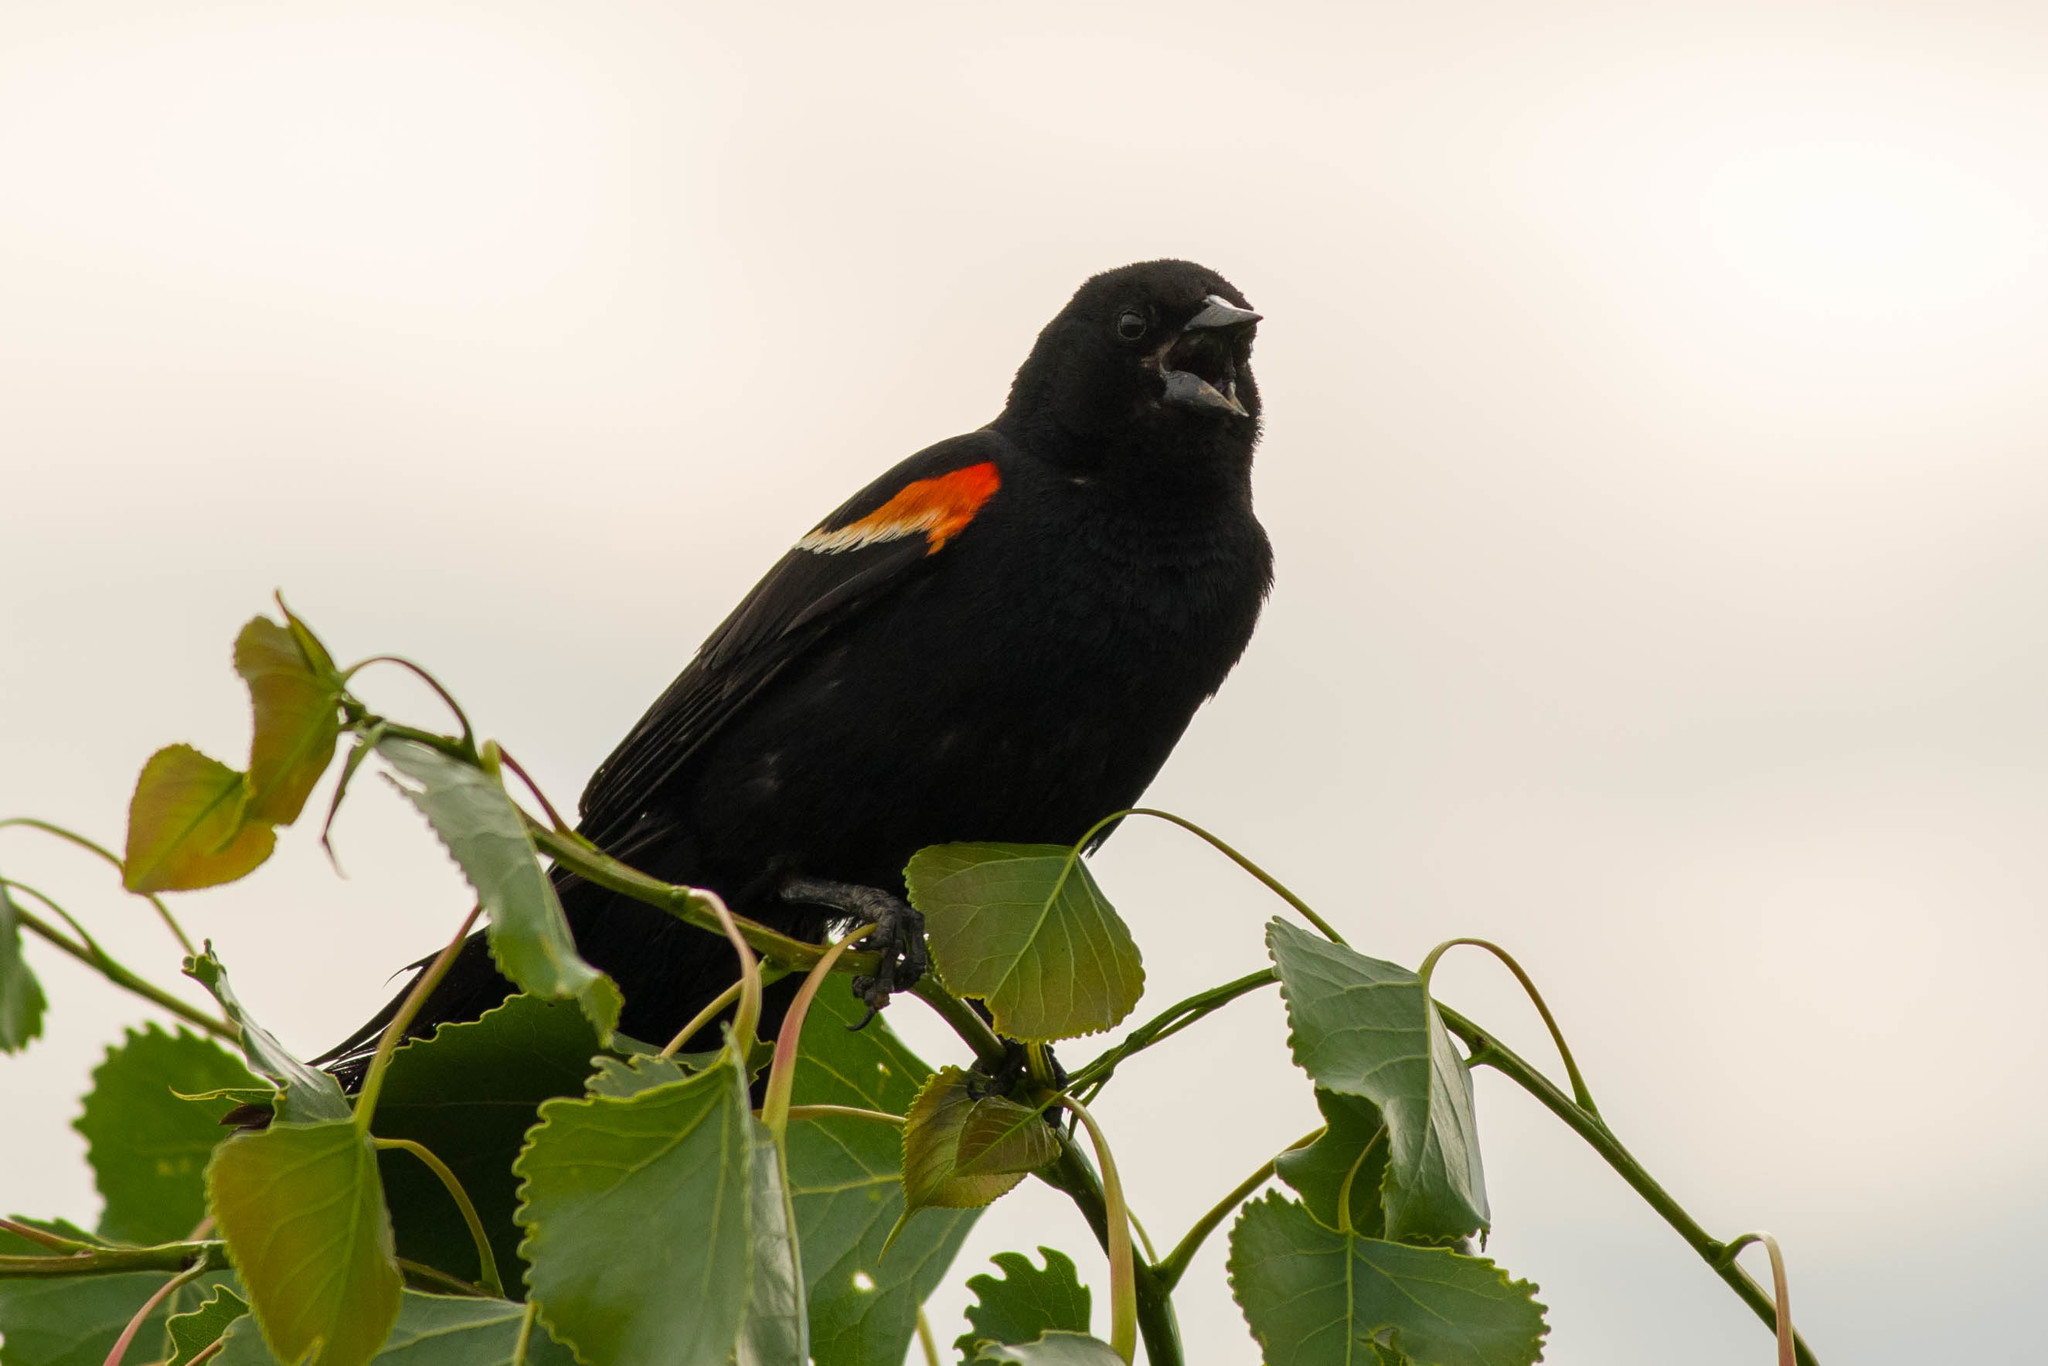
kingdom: Animalia
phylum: Chordata
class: Aves
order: Passeriformes
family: Icteridae
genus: Agelaius
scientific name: Agelaius phoeniceus
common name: Red-winged blackbird
